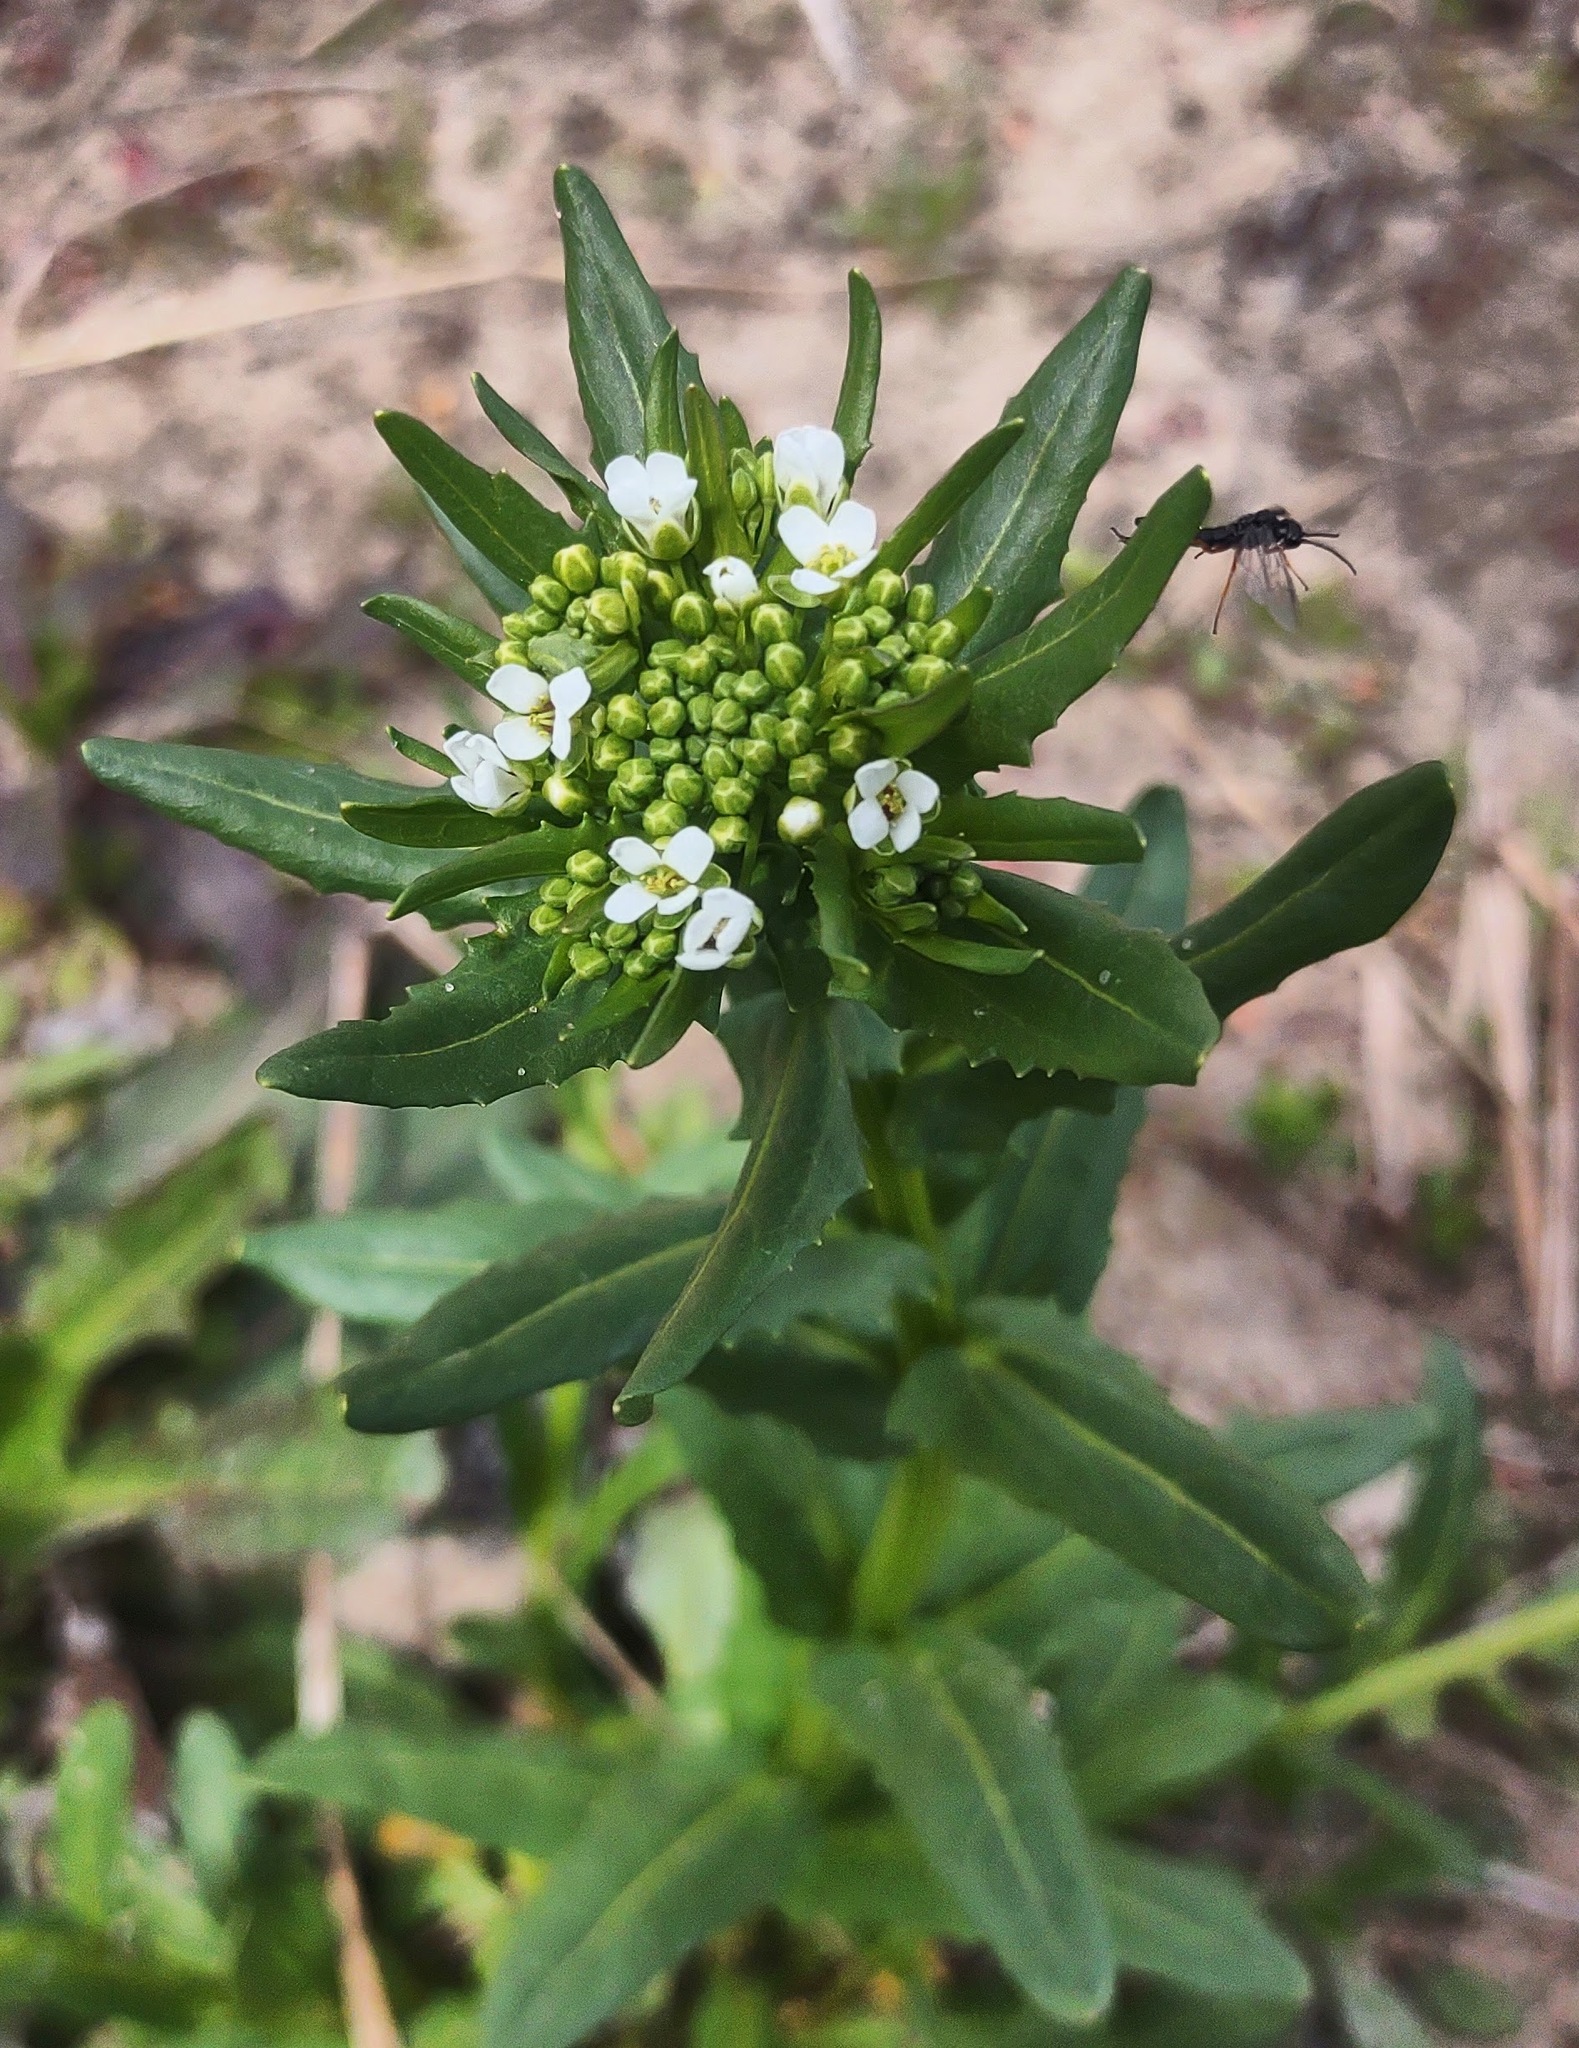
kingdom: Plantae
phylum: Tracheophyta
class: Magnoliopsida
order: Brassicales
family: Brassicaceae
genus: Thlaspi
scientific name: Thlaspi arvense
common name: Field pennycress
